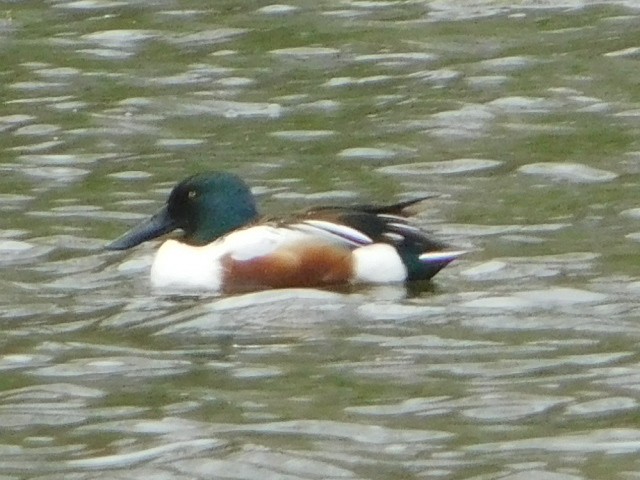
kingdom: Animalia
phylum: Chordata
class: Aves
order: Anseriformes
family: Anatidae
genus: Spatula
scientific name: Spatula clypeata
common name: Northern shoveler
